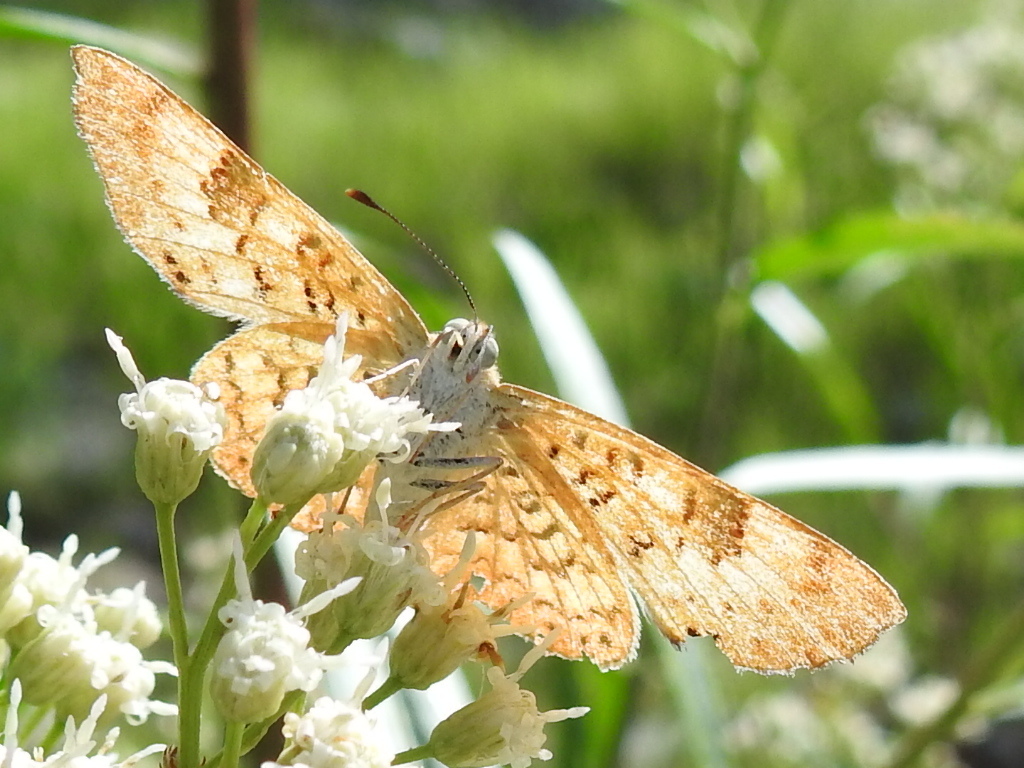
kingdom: Animalia
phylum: Arthropoda
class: Insecta
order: Lepidoptera
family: Riodinidae
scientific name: Riodinidae
